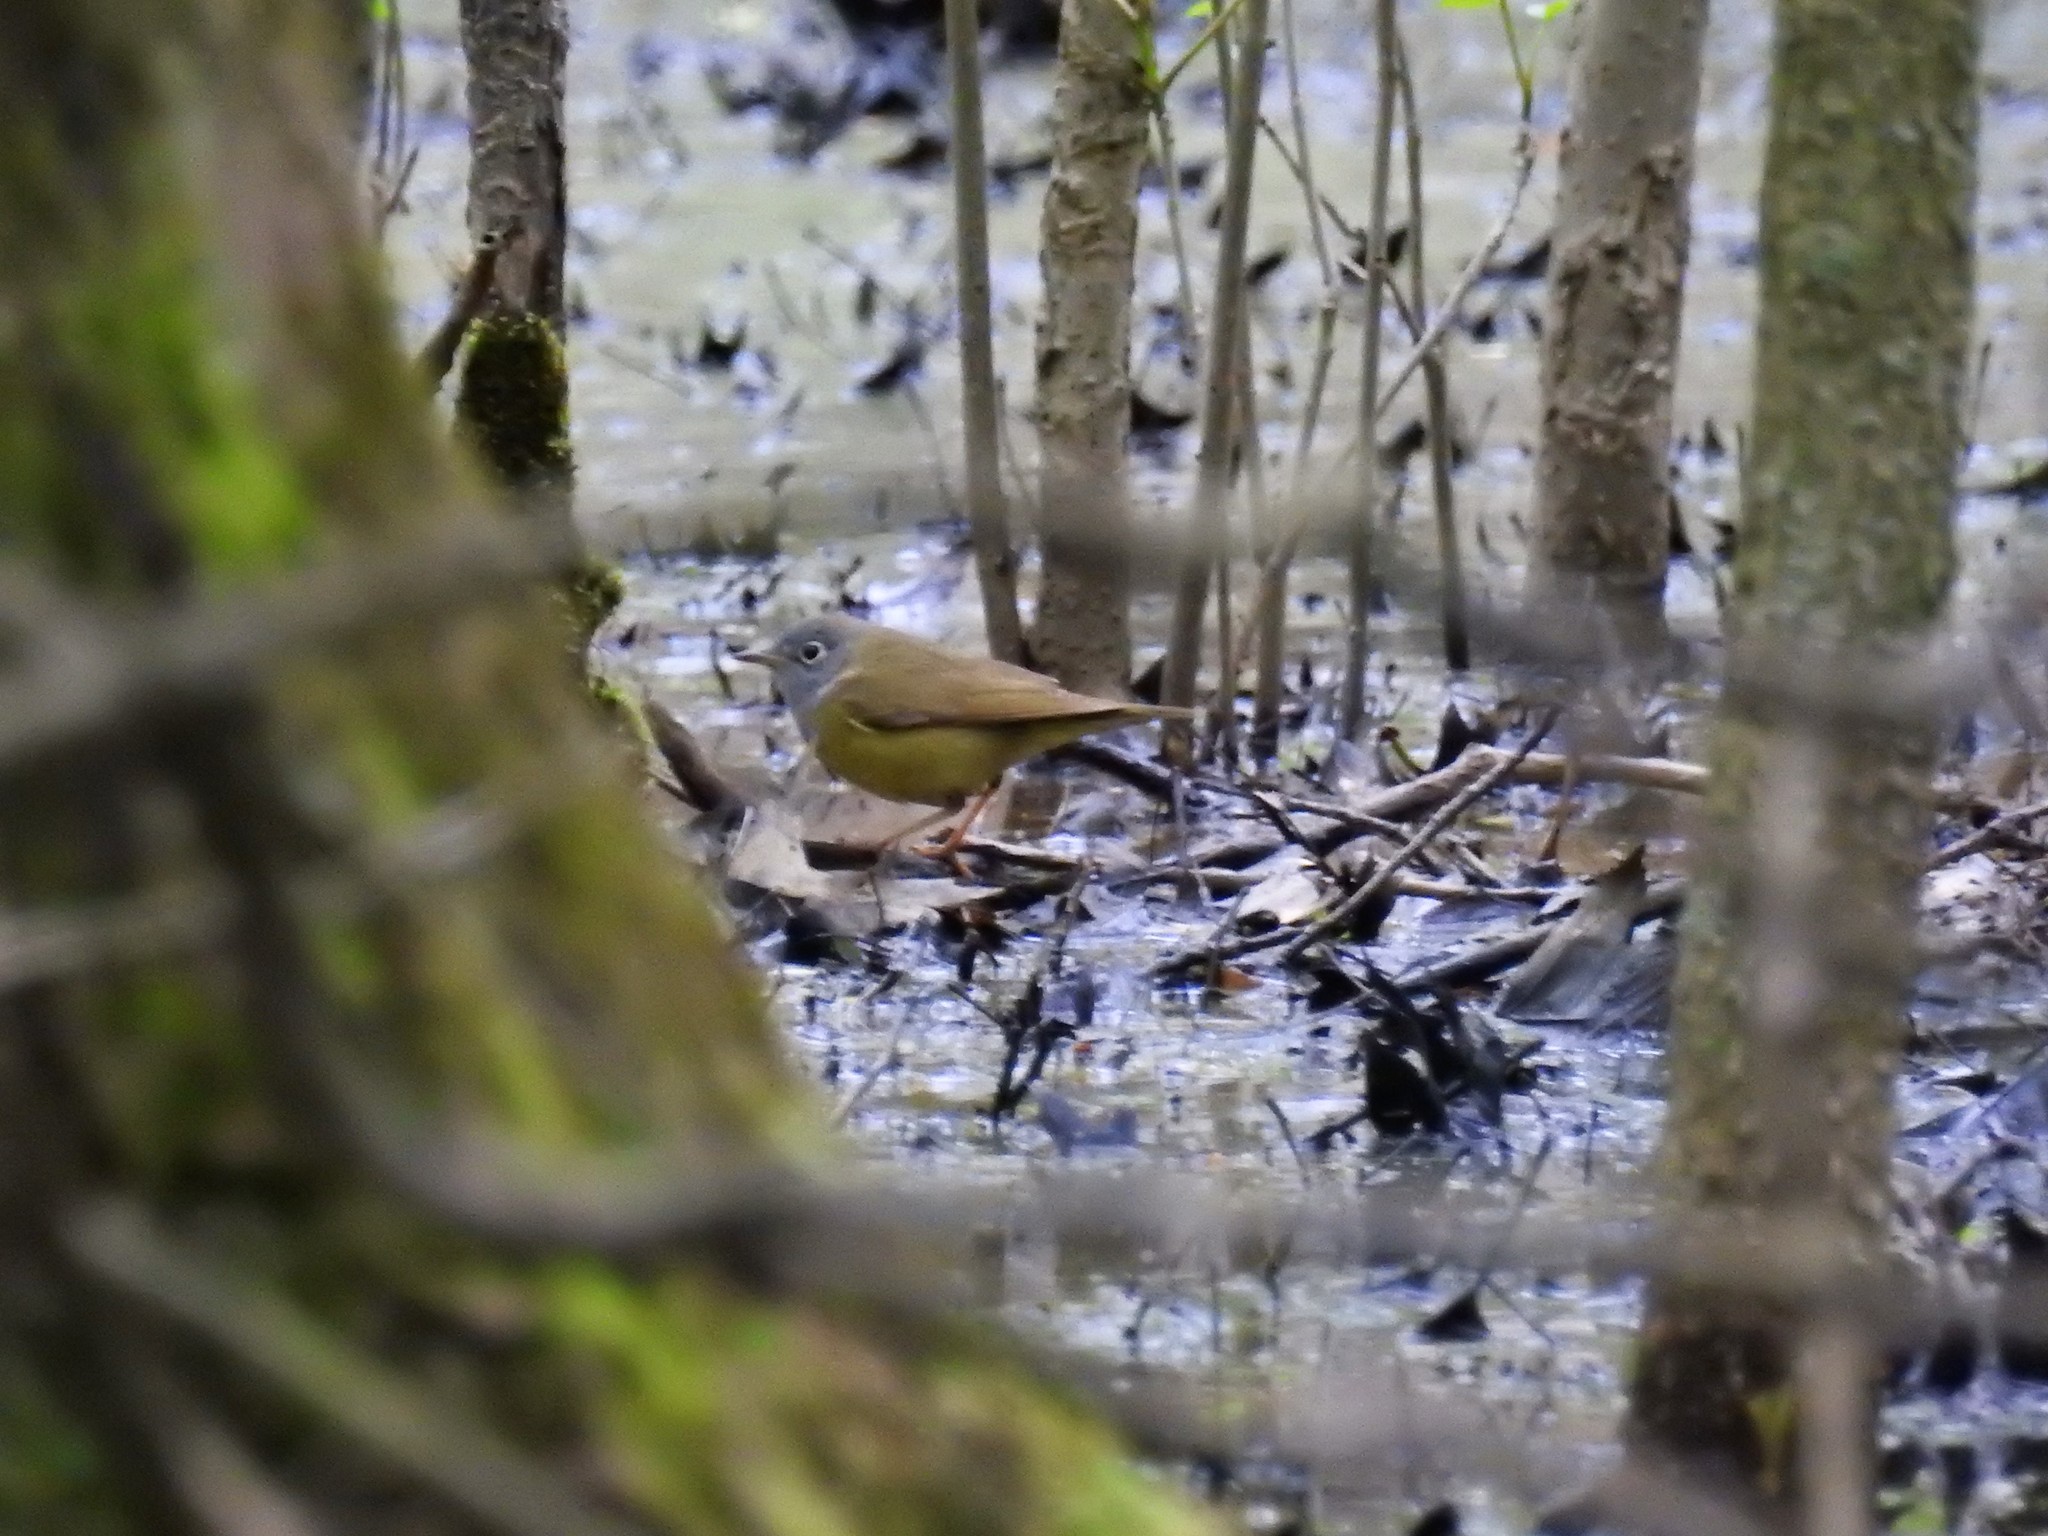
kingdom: Animalia
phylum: Chordata
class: Aves
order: Passeriformes
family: Parulidae
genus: Oporornis
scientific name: Oporornis agilis
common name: Connecticut warbler
